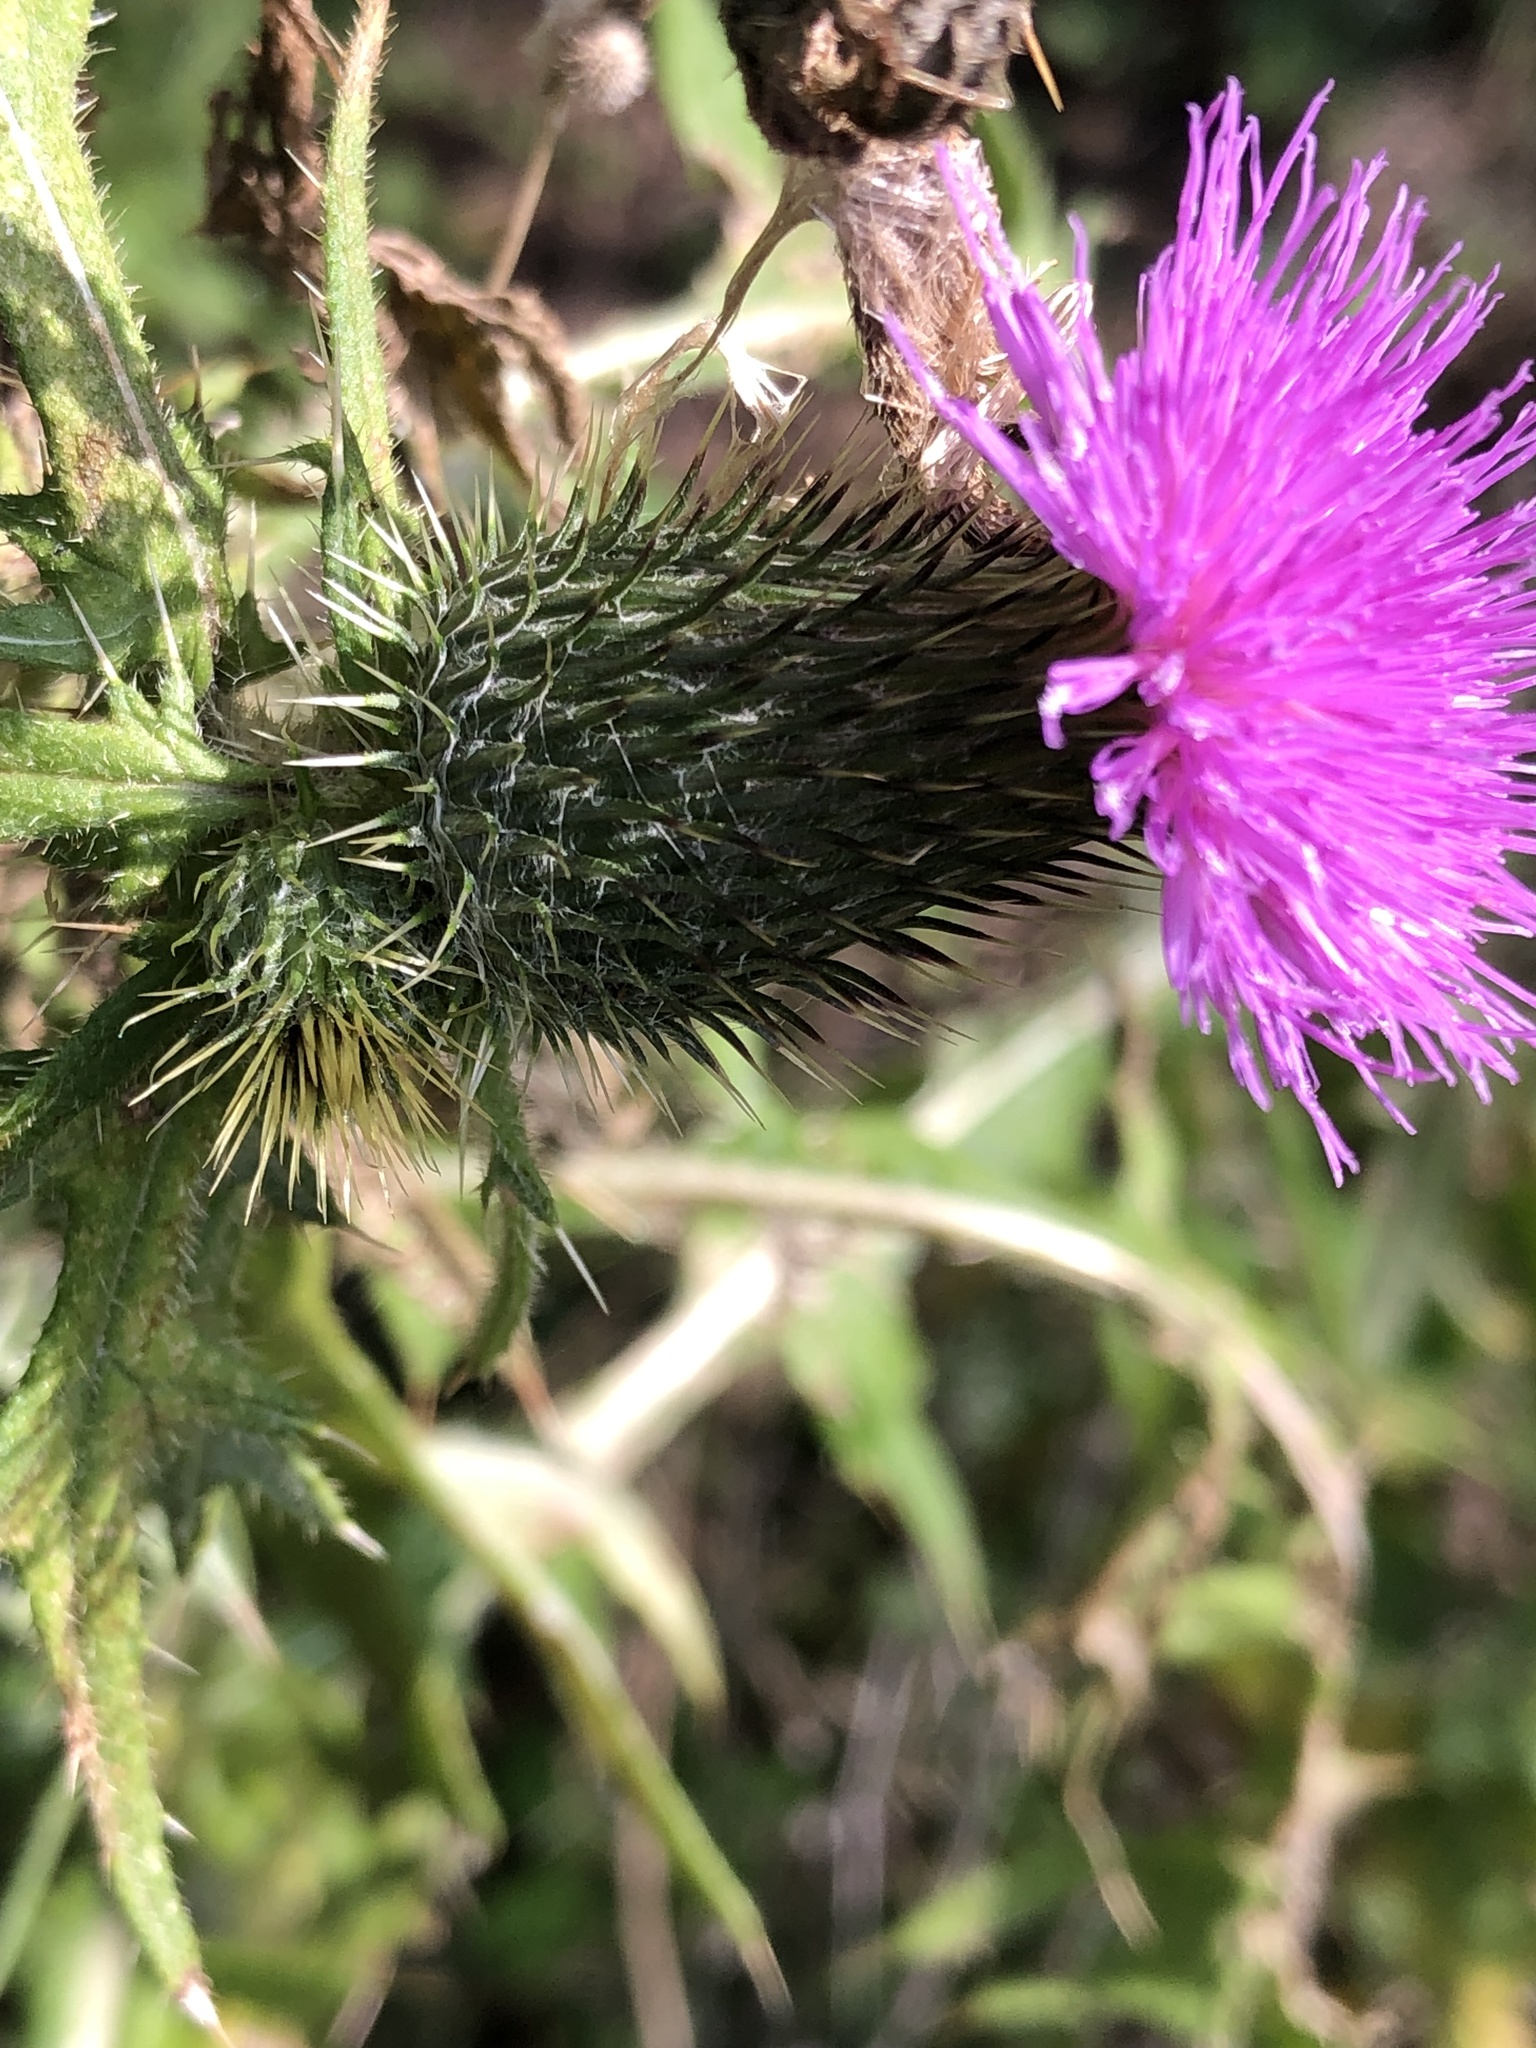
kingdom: Plantae
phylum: Tracheophyta
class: Magnoliopsida
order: Asterales
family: Asteraceae
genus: Cirsium
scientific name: Cirsium vulgare
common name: Bull thistle
